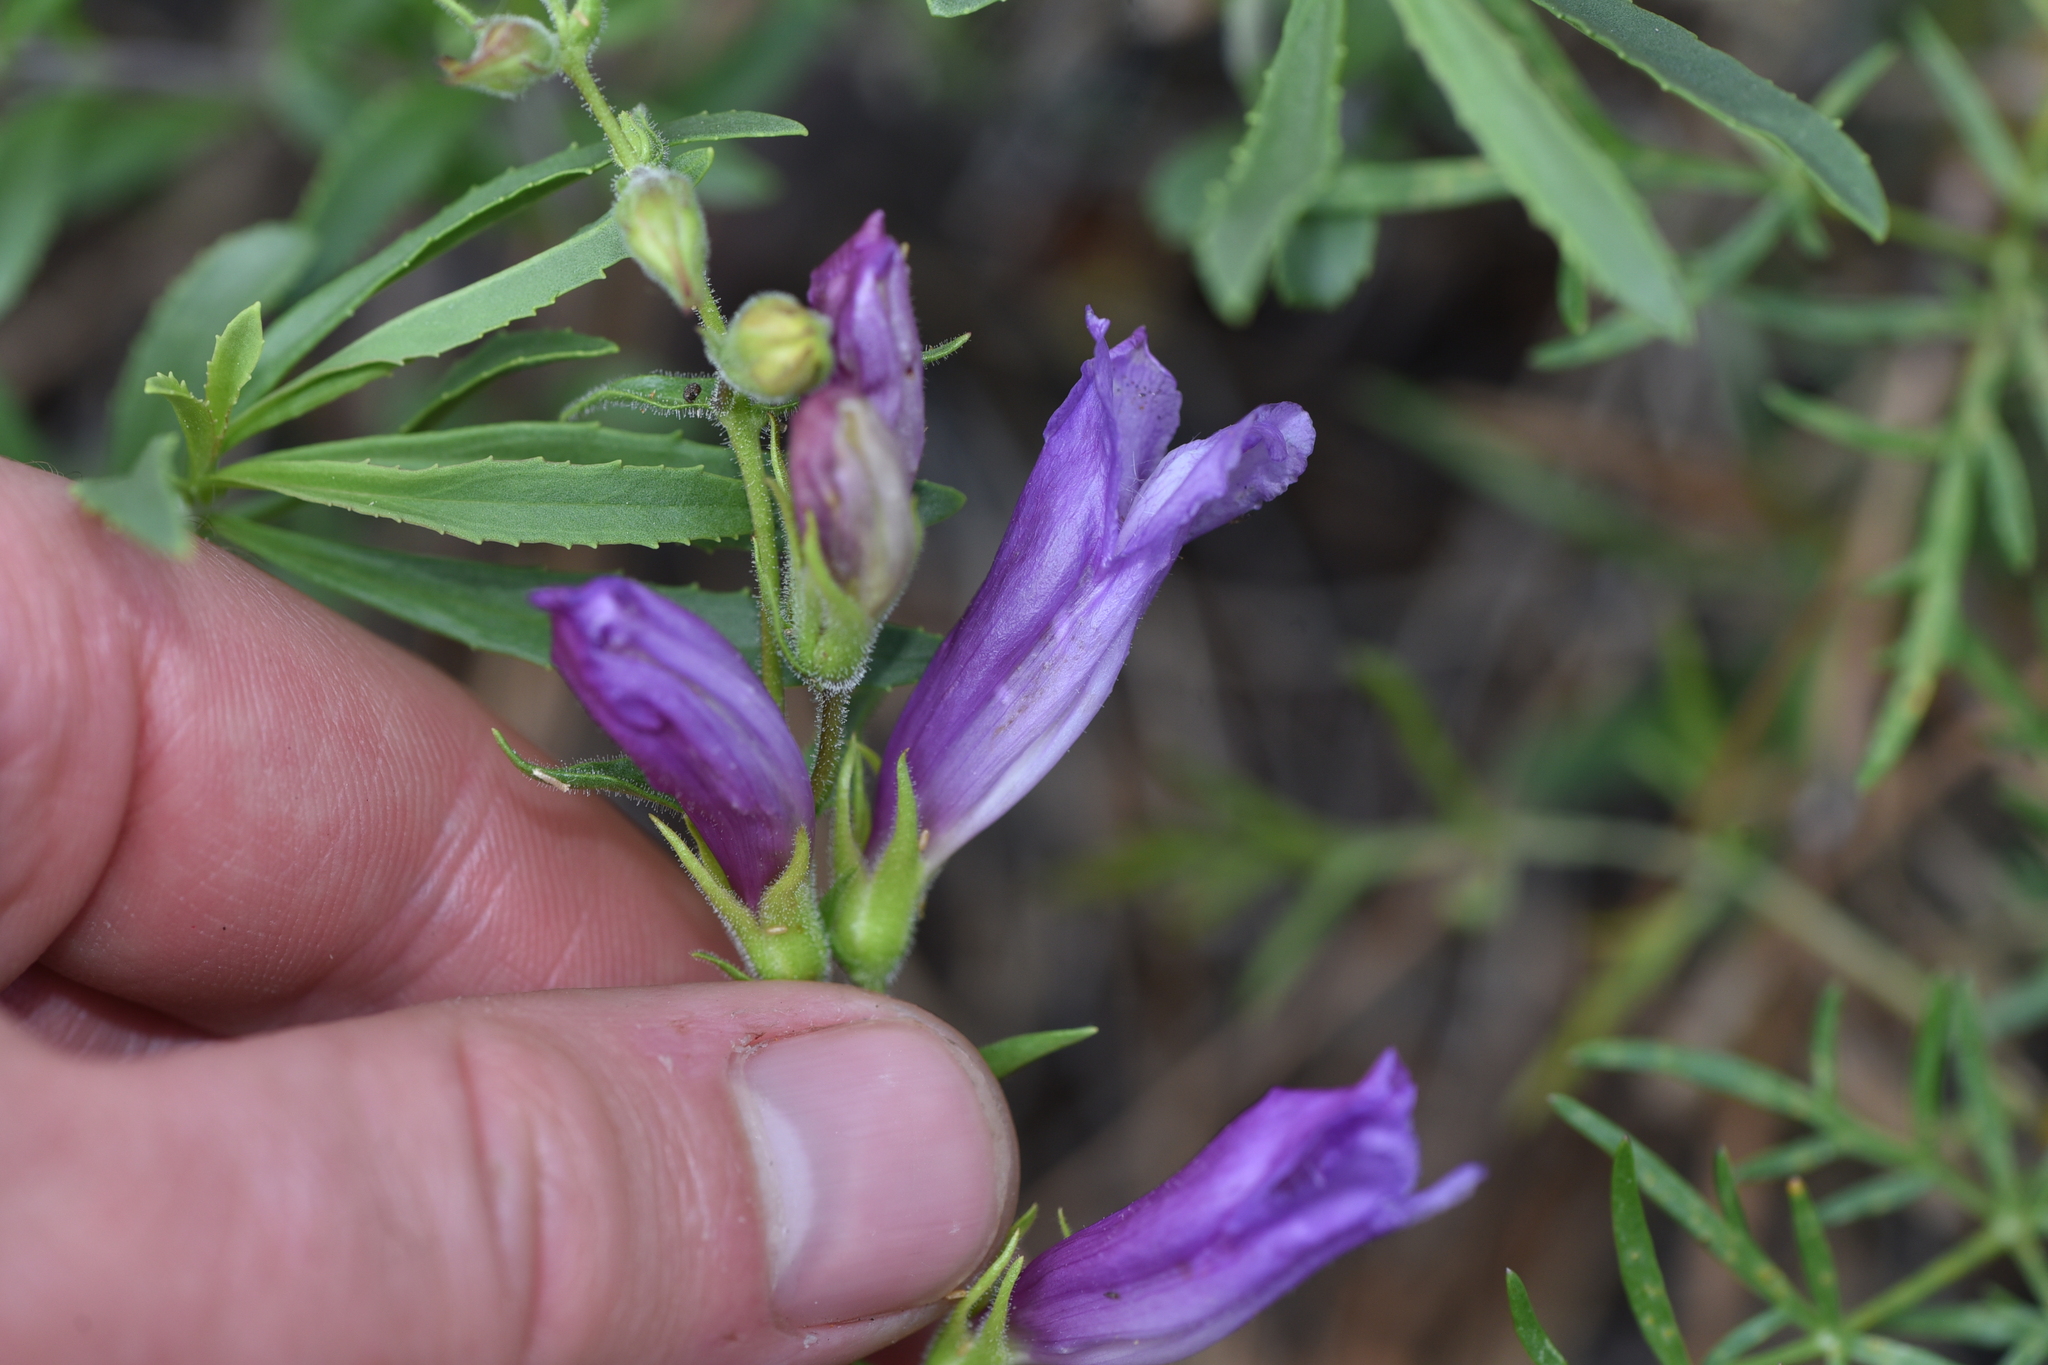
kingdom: Plantae
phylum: Tracheophyta
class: Magnoliopsida
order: Lamiales
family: Plantaginaceae
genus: Penstemon
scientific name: Penstemon fruticosus
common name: Bush penstemon
